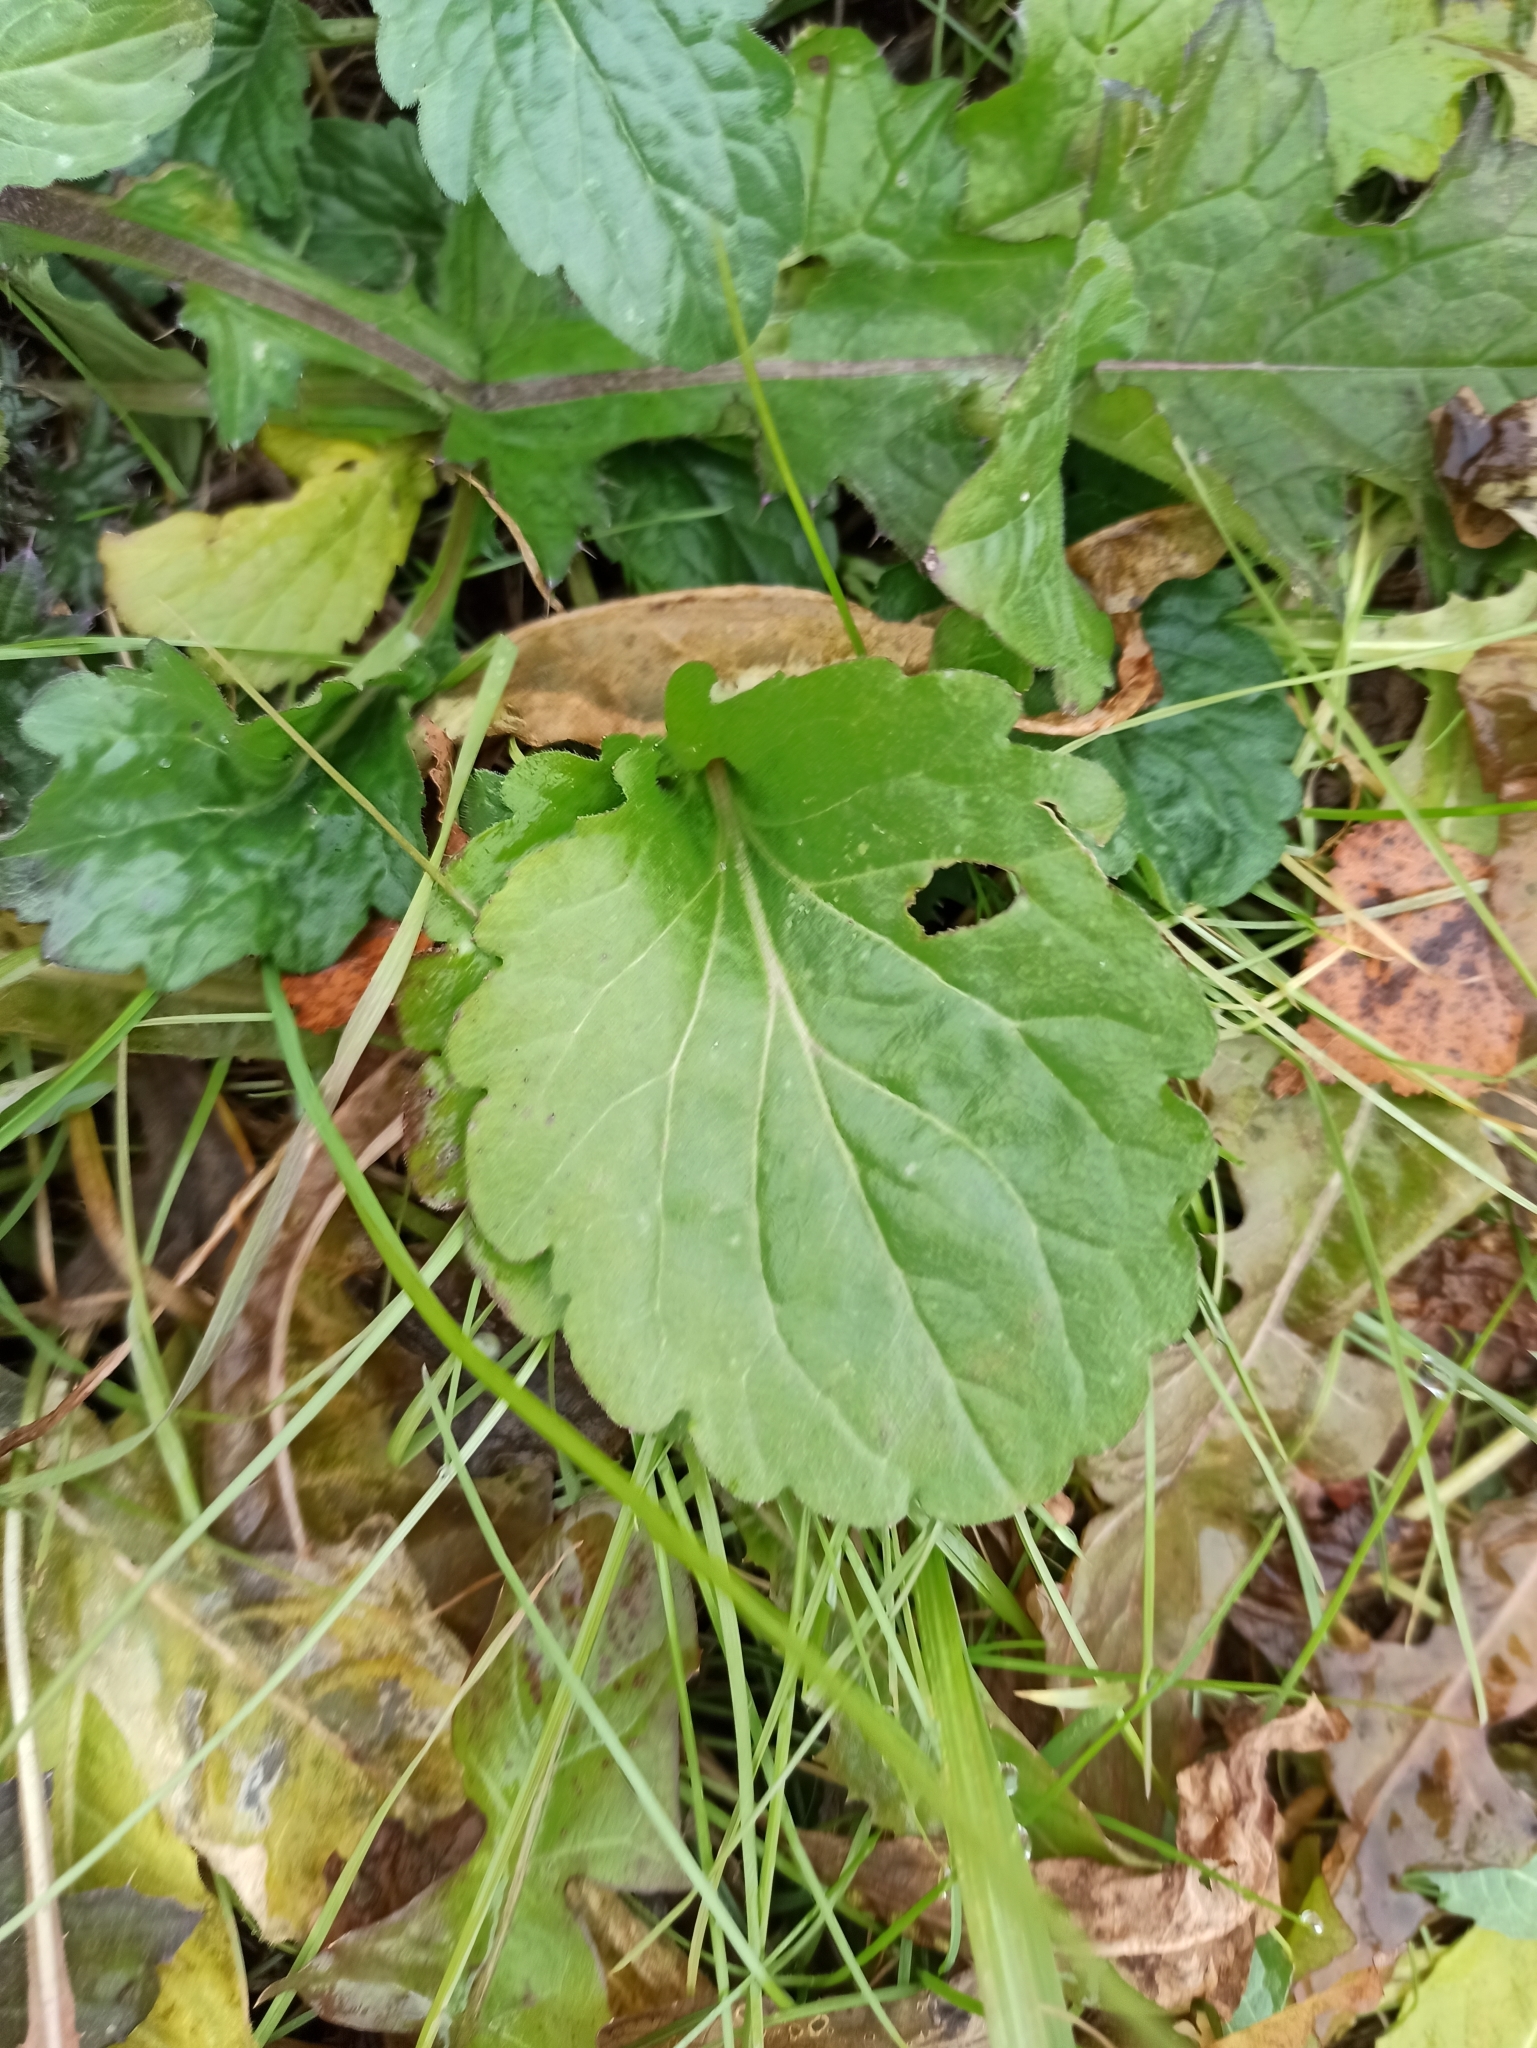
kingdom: Plantae
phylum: Tracheophyta
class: Magnoliopsida
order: Asterales
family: Asteraceae
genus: Erigeron
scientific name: Erigeron annuus
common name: Tall fleabane
